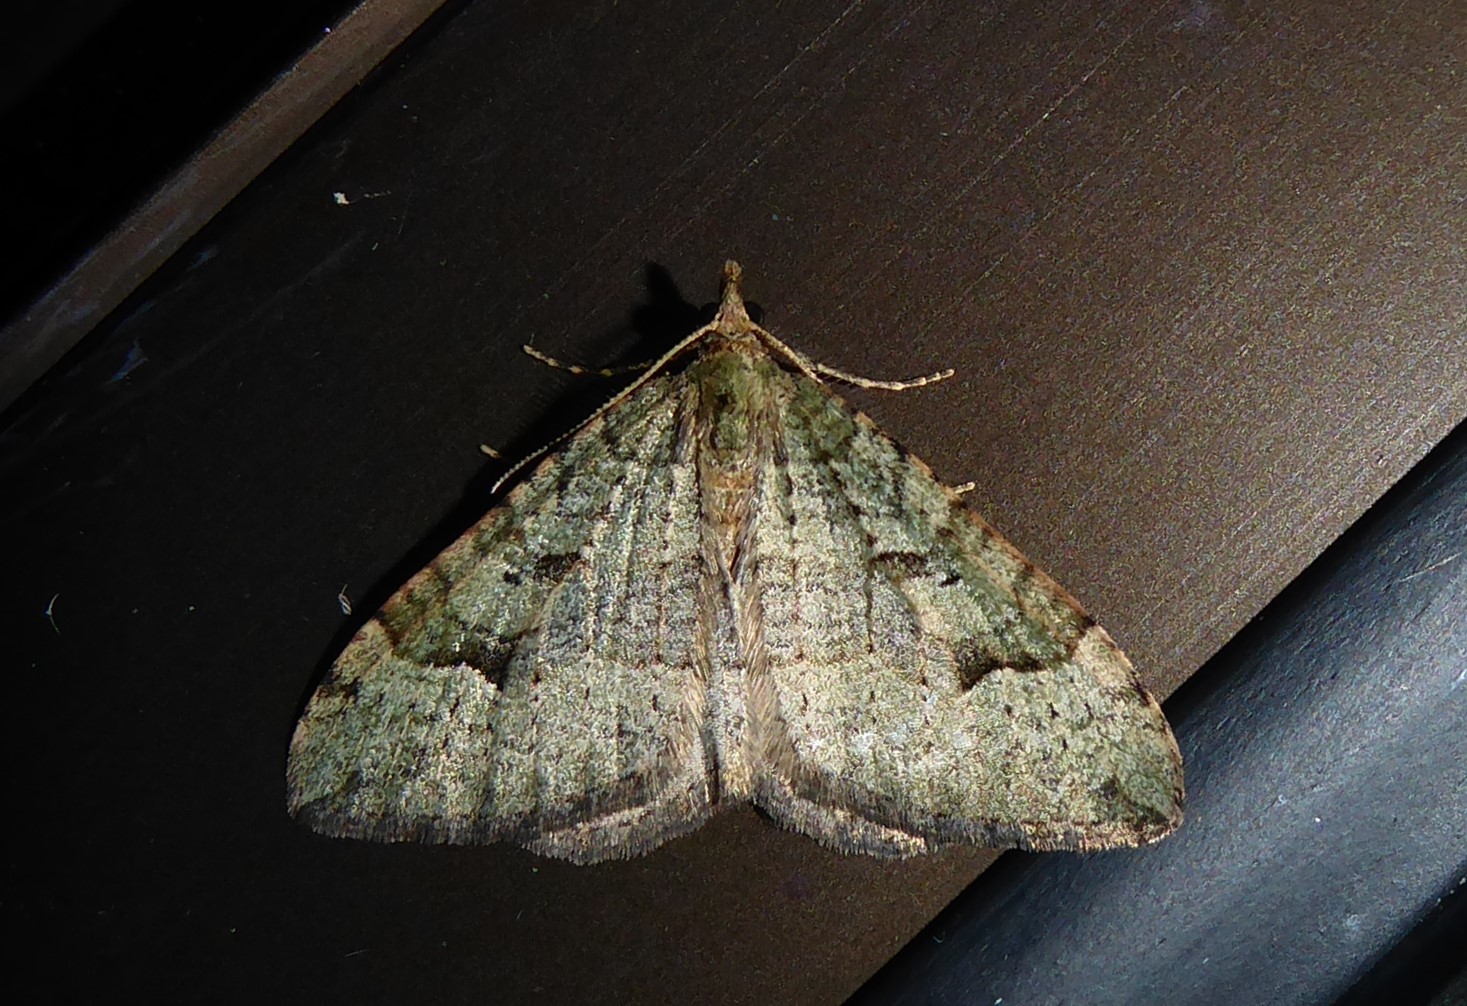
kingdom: Animalia
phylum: Arthropoda
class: Insecta
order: Lepidoptera
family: Geometridae
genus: Epyaxa
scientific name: Epyaxa rosearia
